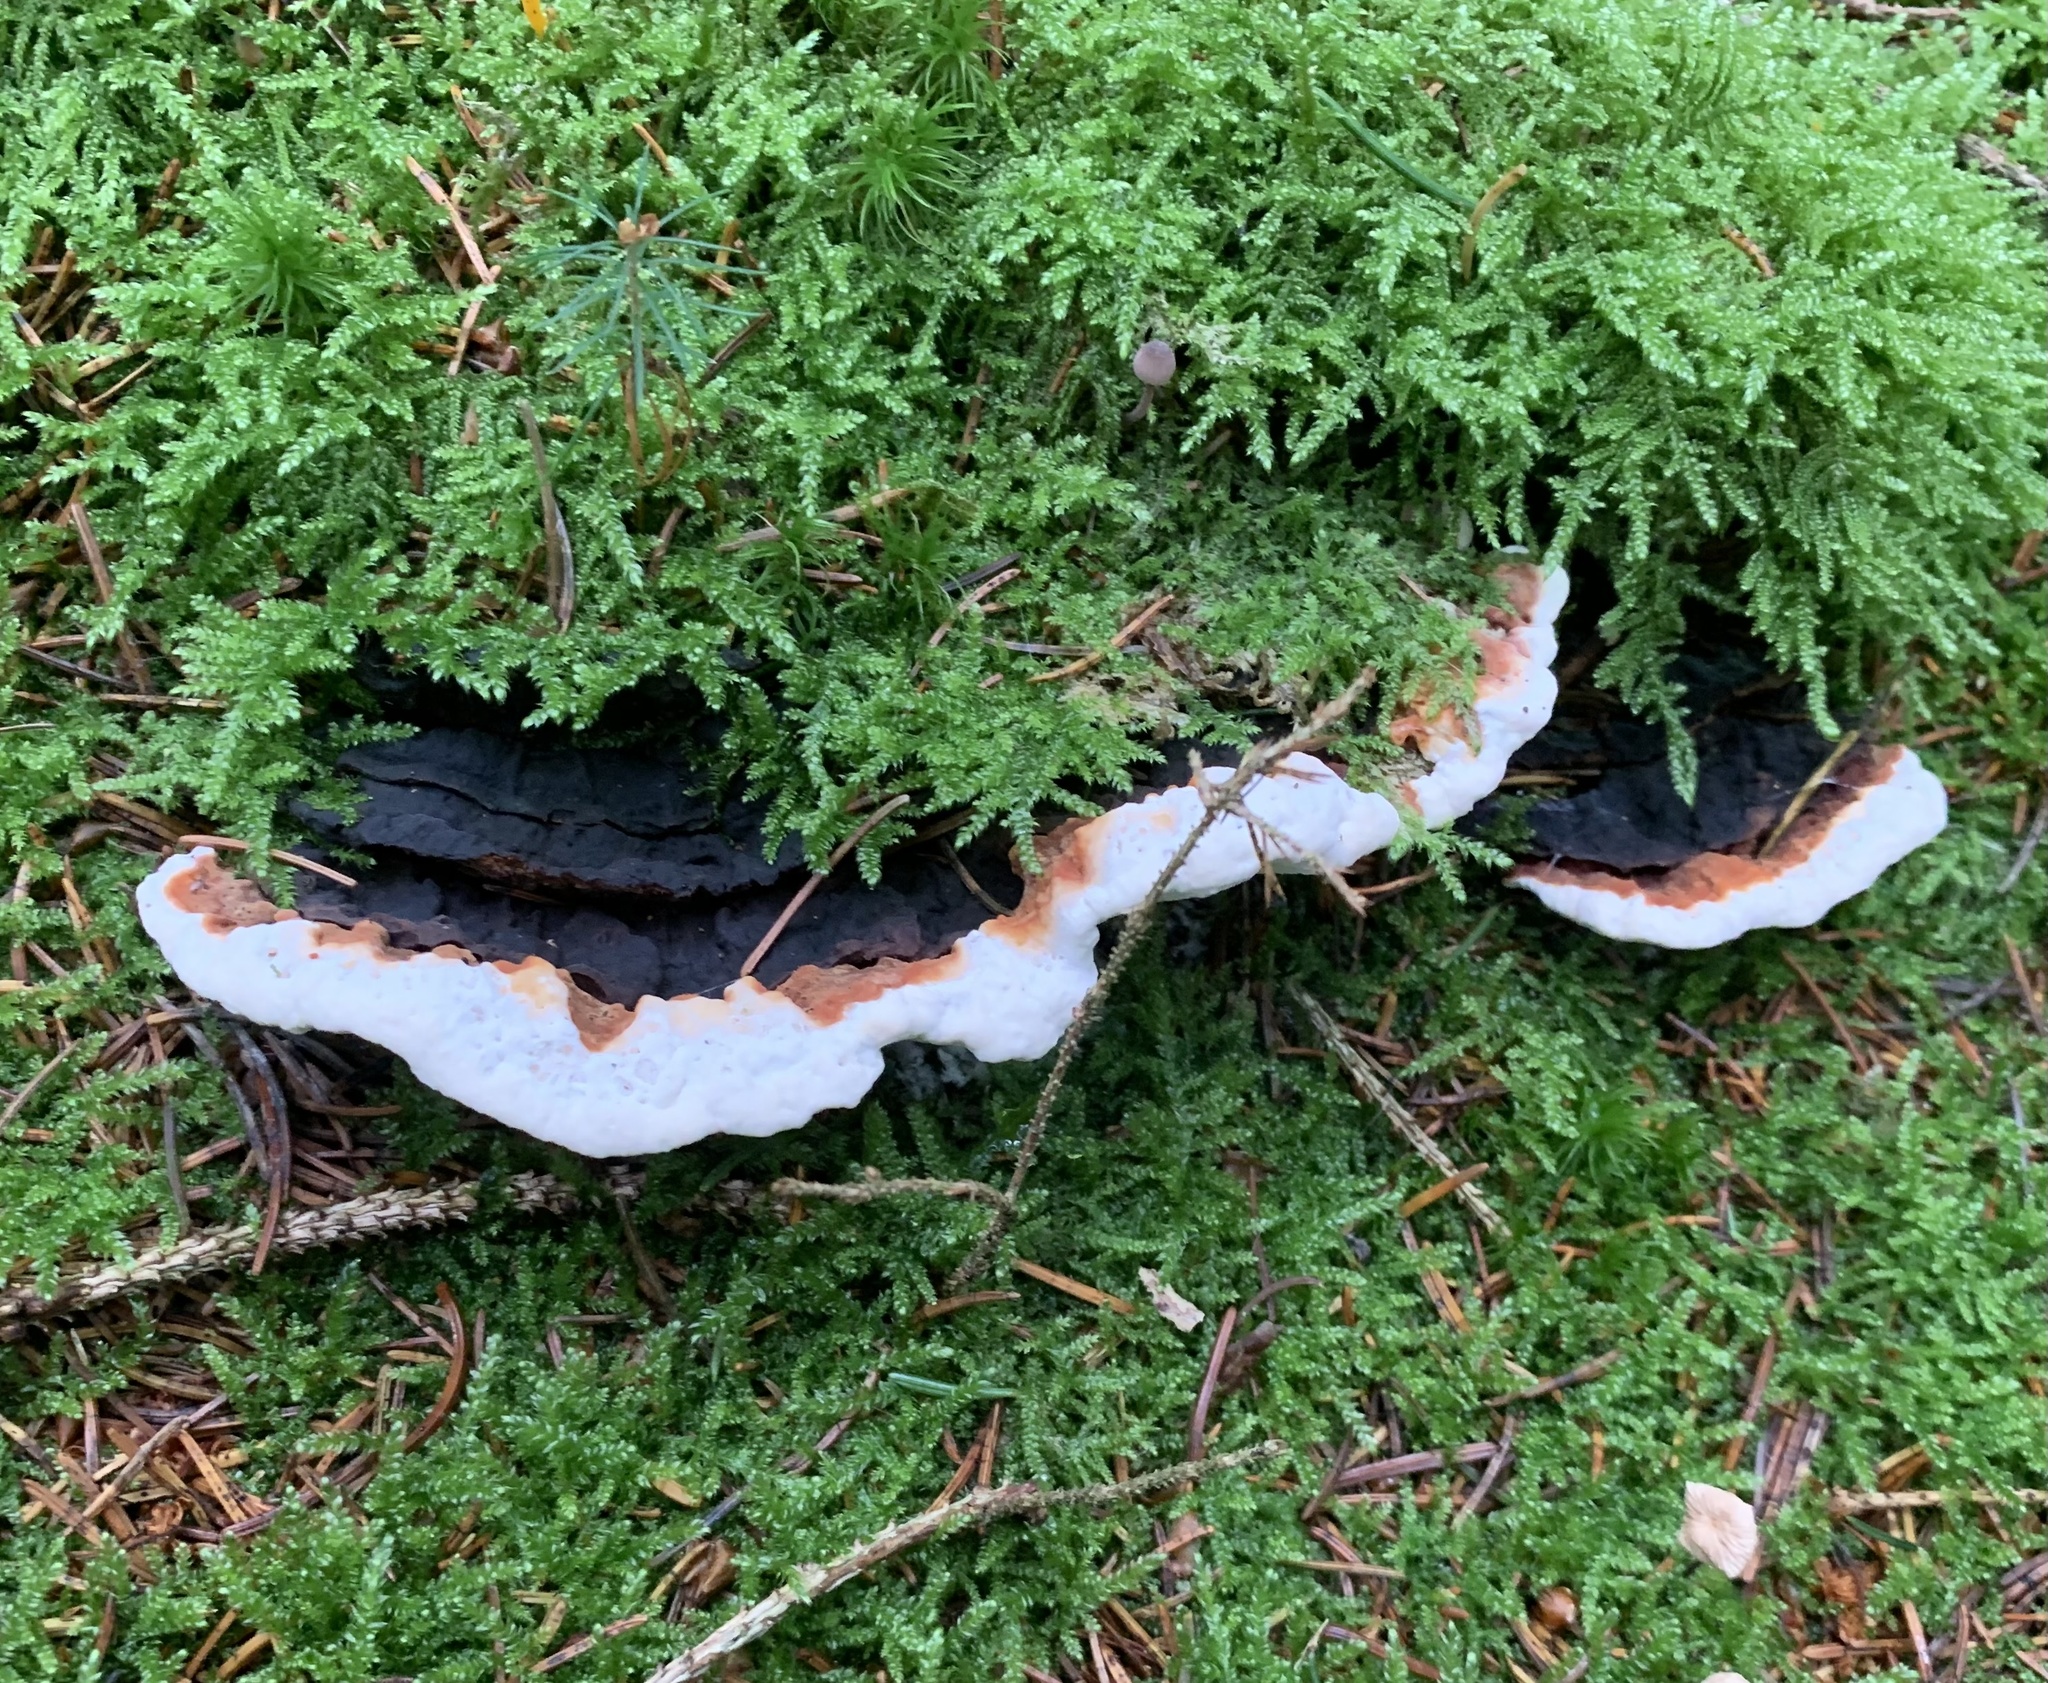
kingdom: Fungi
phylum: Basidiomycota
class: Agaricomycetes
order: Russulales
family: Bondarzewiaceae
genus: Heterobasidion
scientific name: Heterobasidion annosum
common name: Root rot
